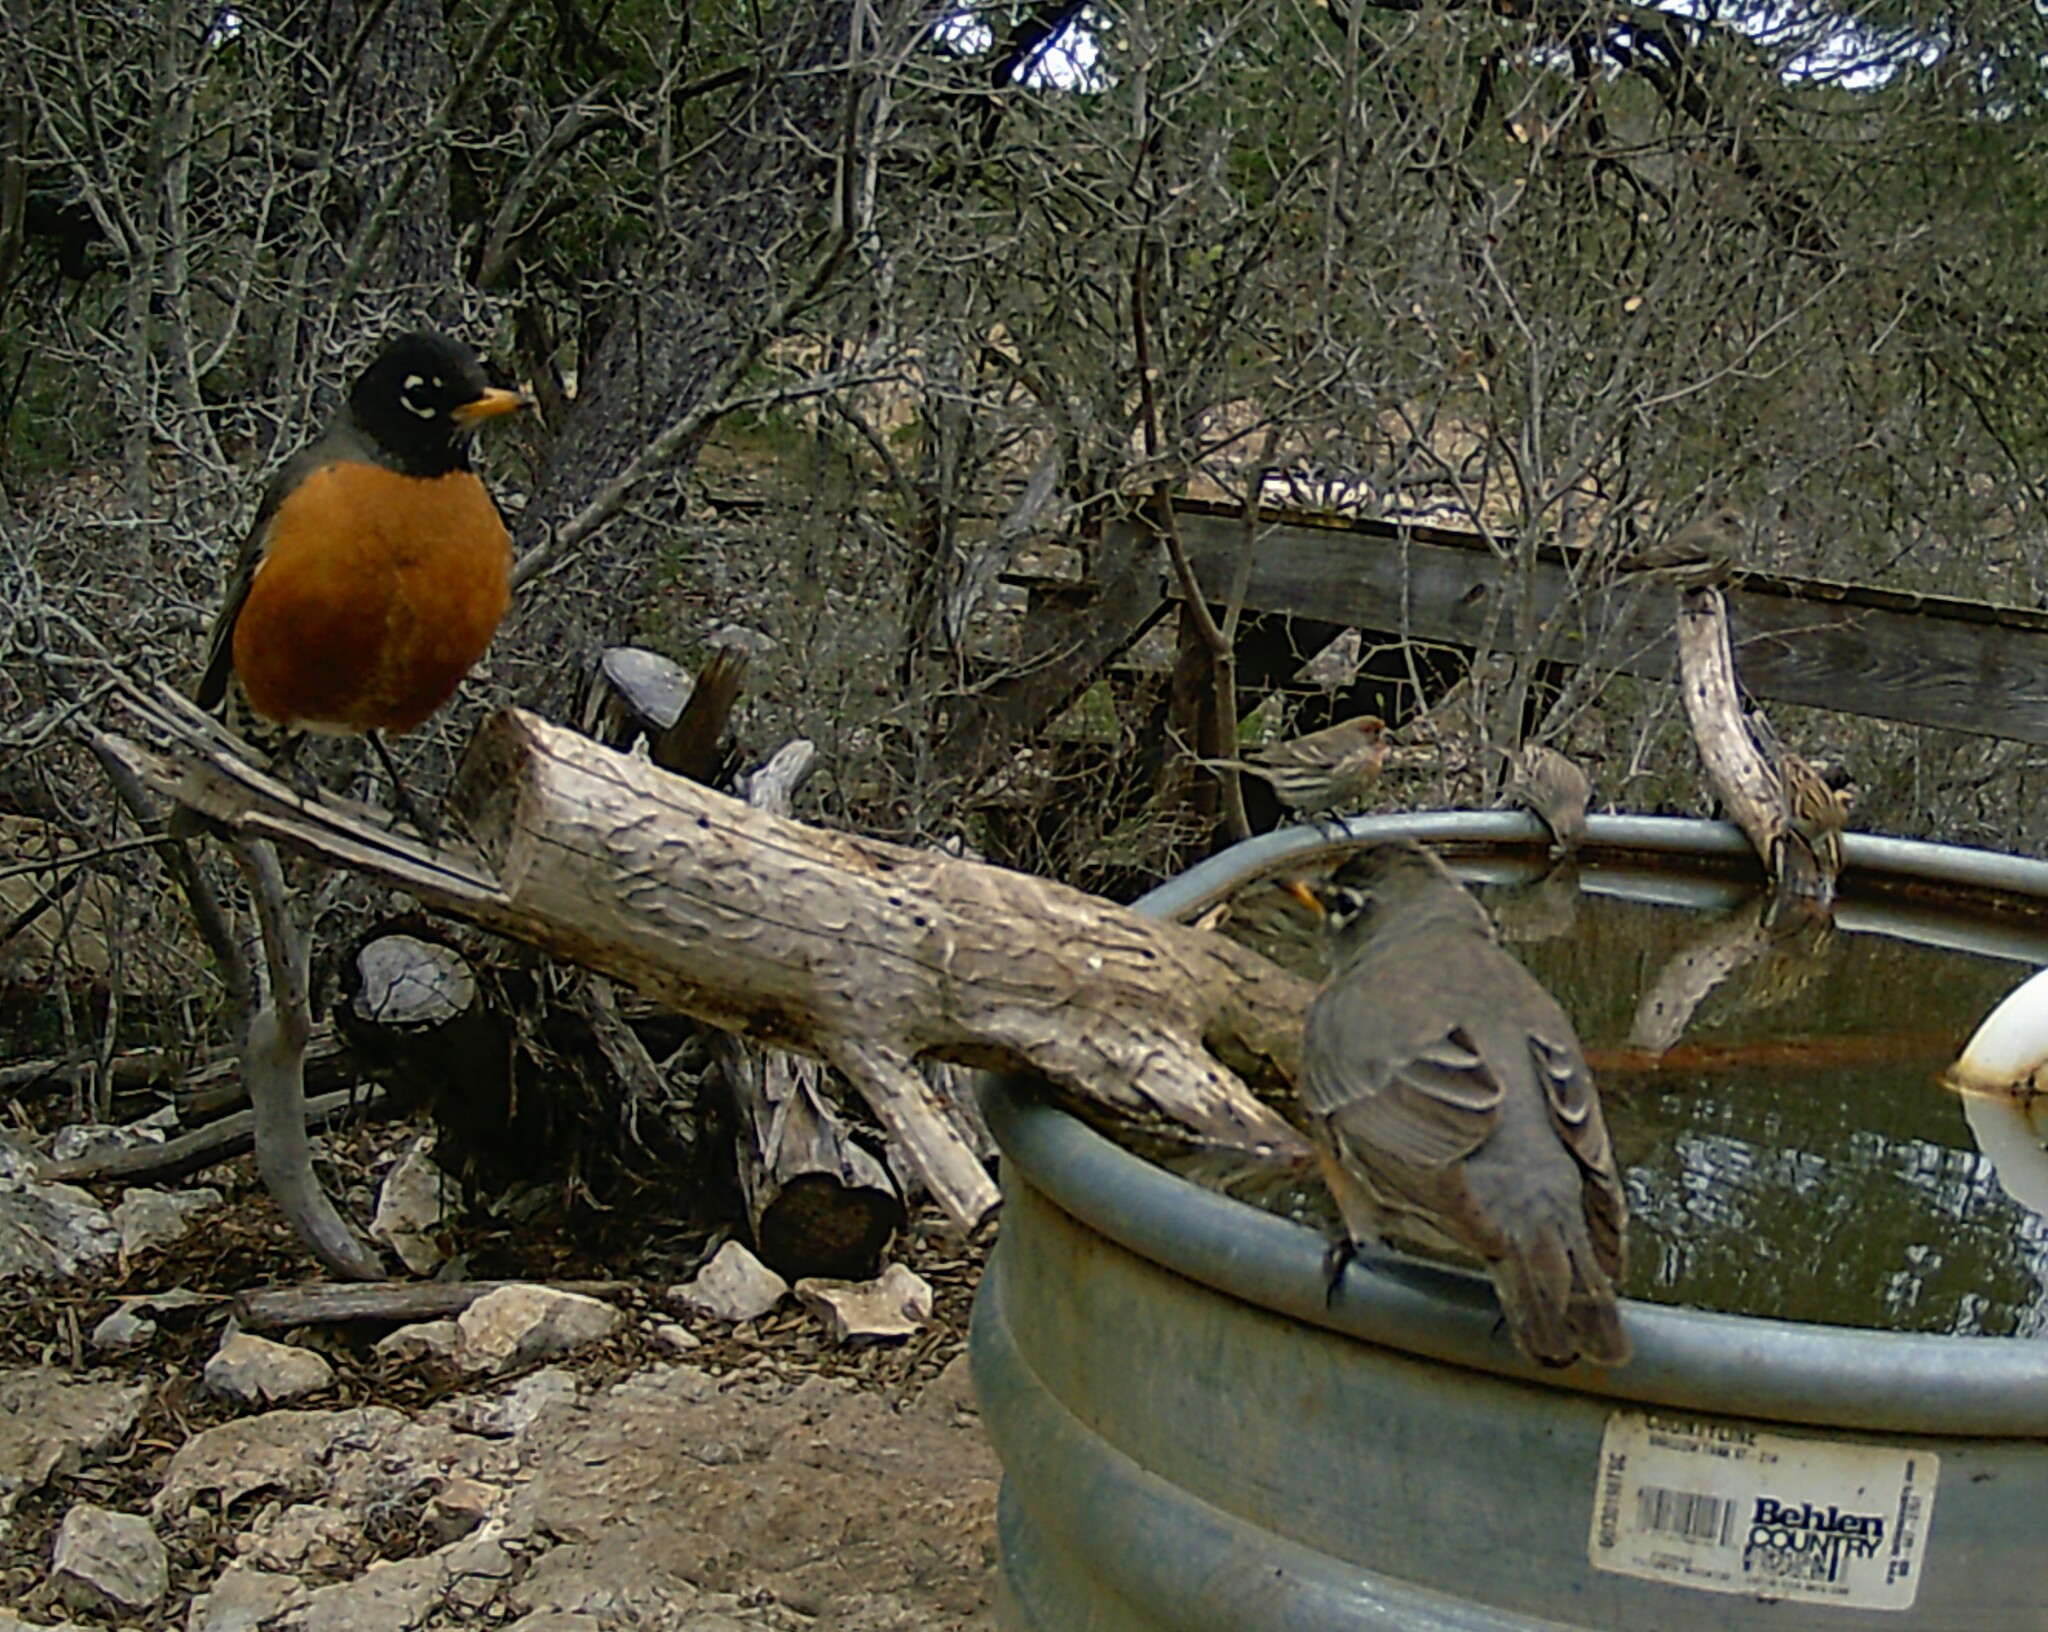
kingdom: Animalia
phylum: Chordata
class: Aves
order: Passeriformes
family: Turdidae
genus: Turdus
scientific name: Turdus migratorius
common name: American robin
